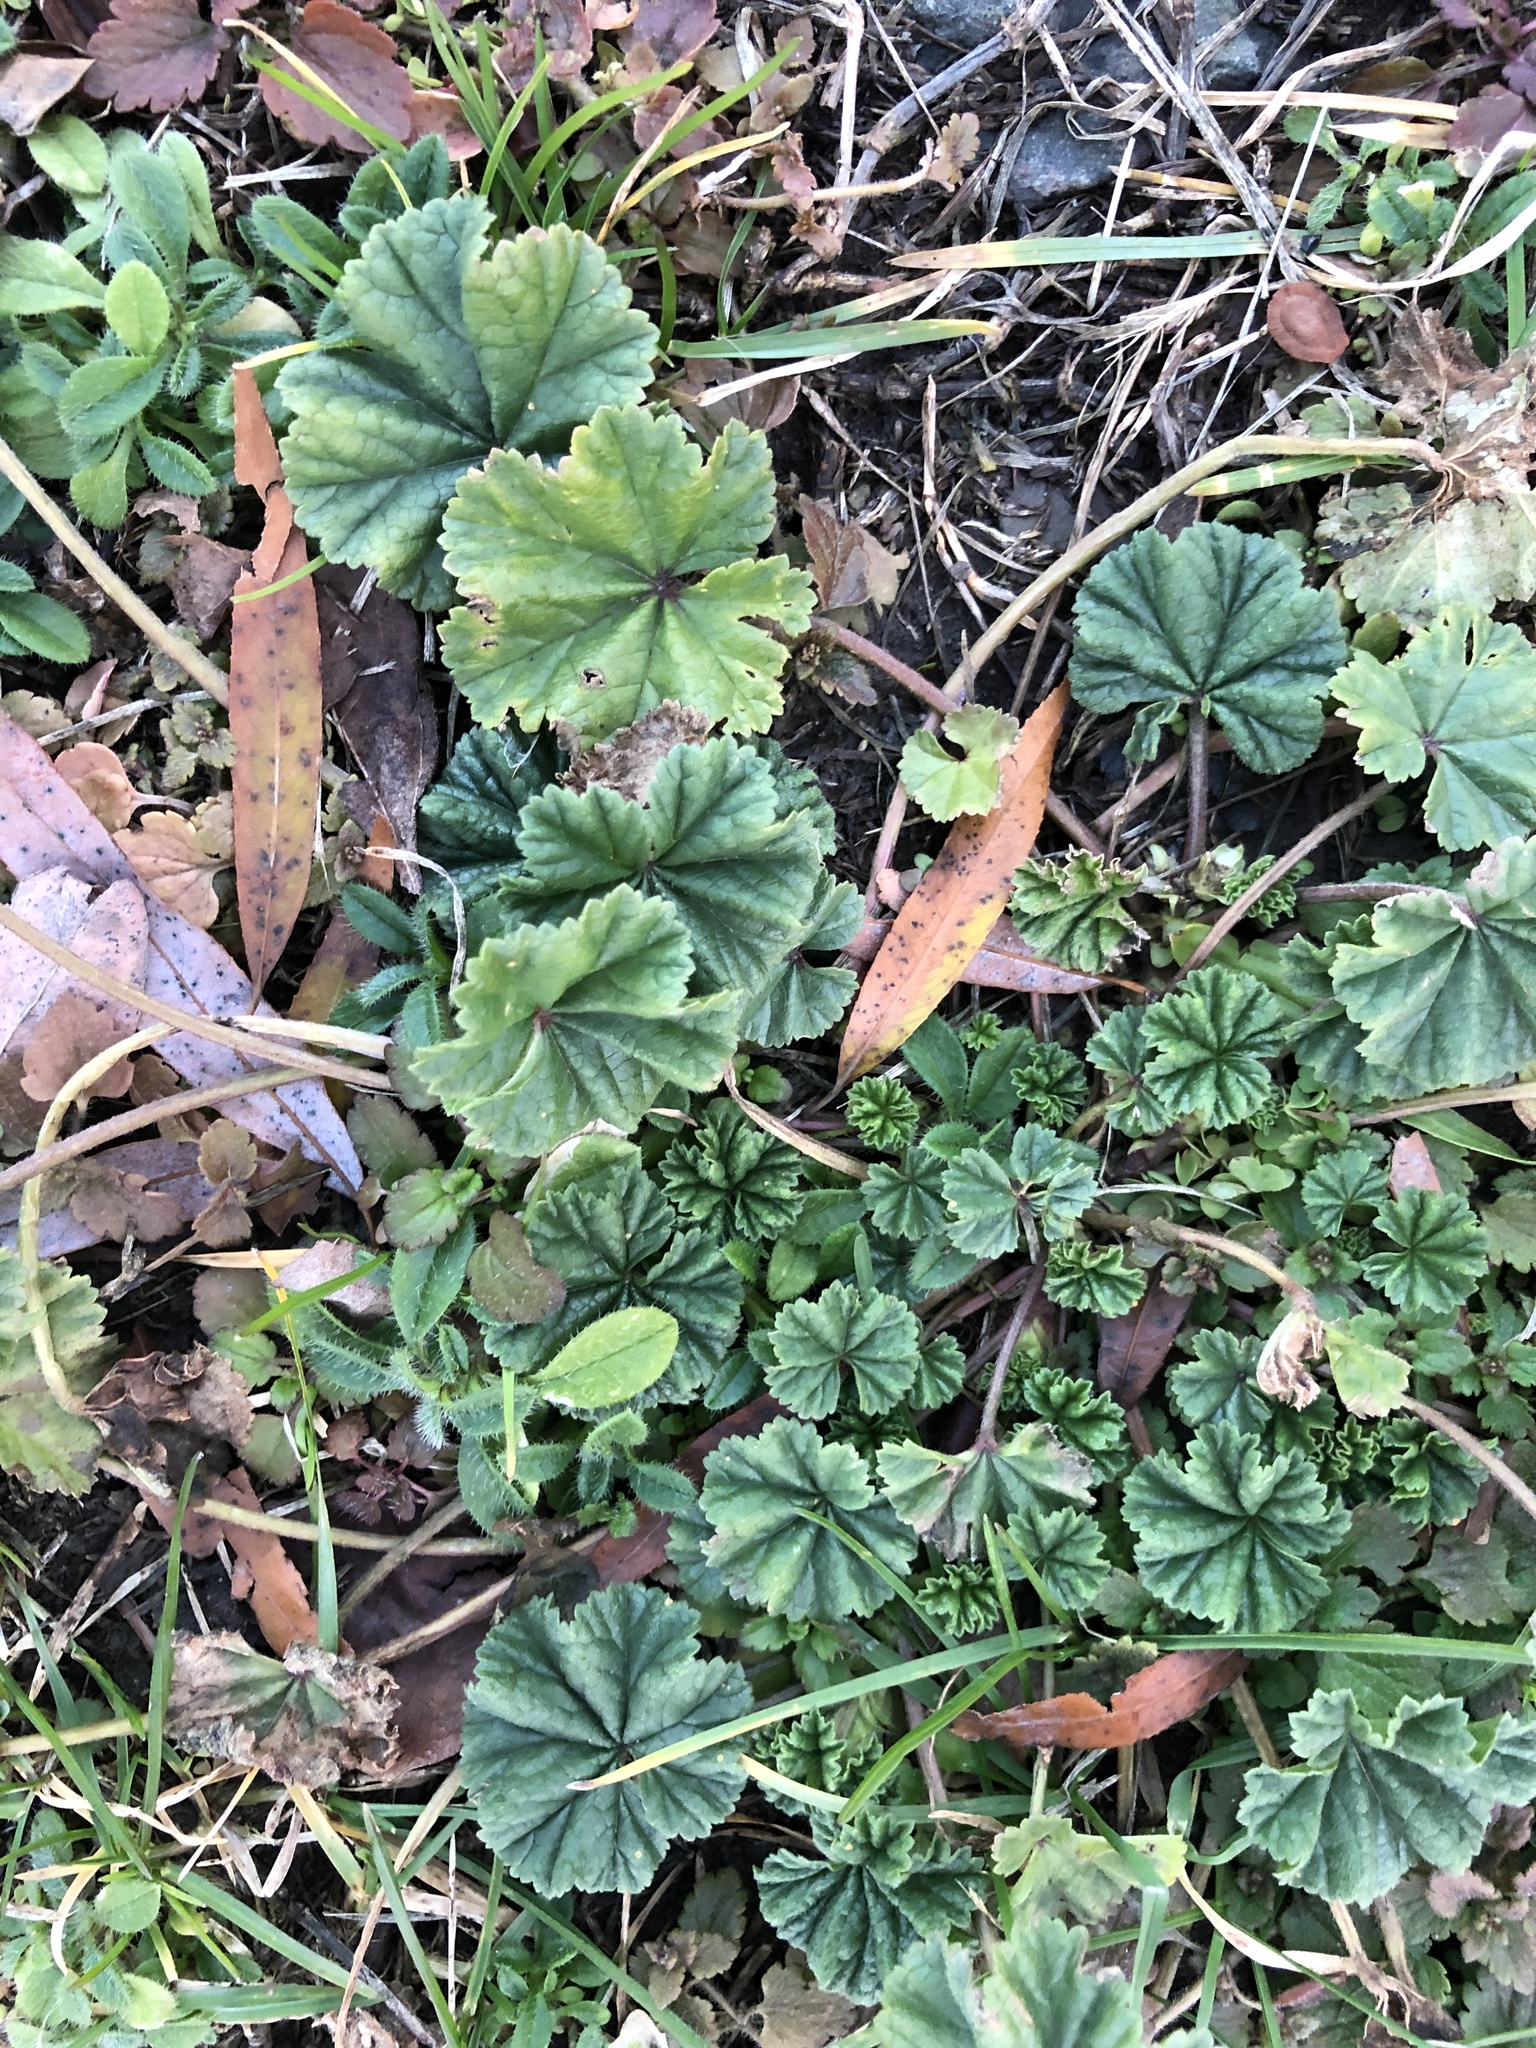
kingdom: Plantae
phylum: Tracheophyta
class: Magnoliopsida
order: Malvales
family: Malvaceae
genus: Malva
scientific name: Malva neglecta
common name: Common mallow
